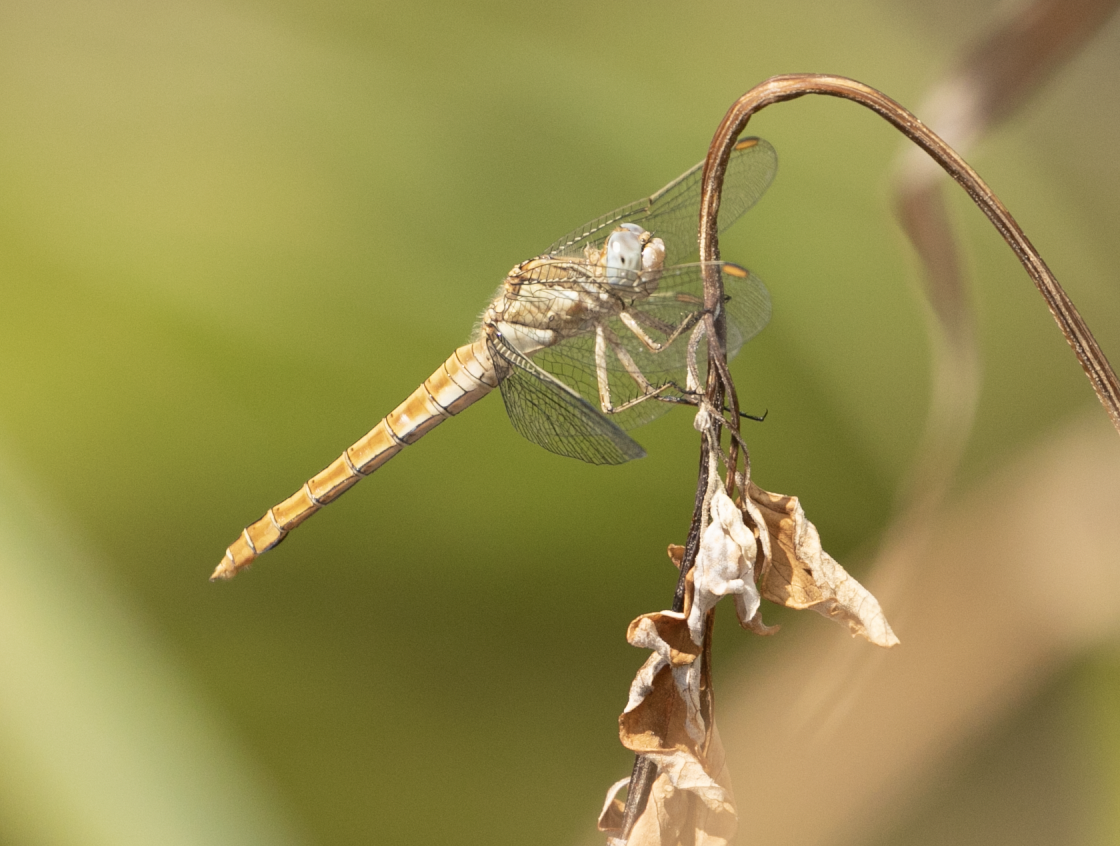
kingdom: Animalia
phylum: Arthropoda
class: Insecta
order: Odonata
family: Libellulidae
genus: Orthetrum
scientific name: Orthetrum brunneum
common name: Southern skimmer
